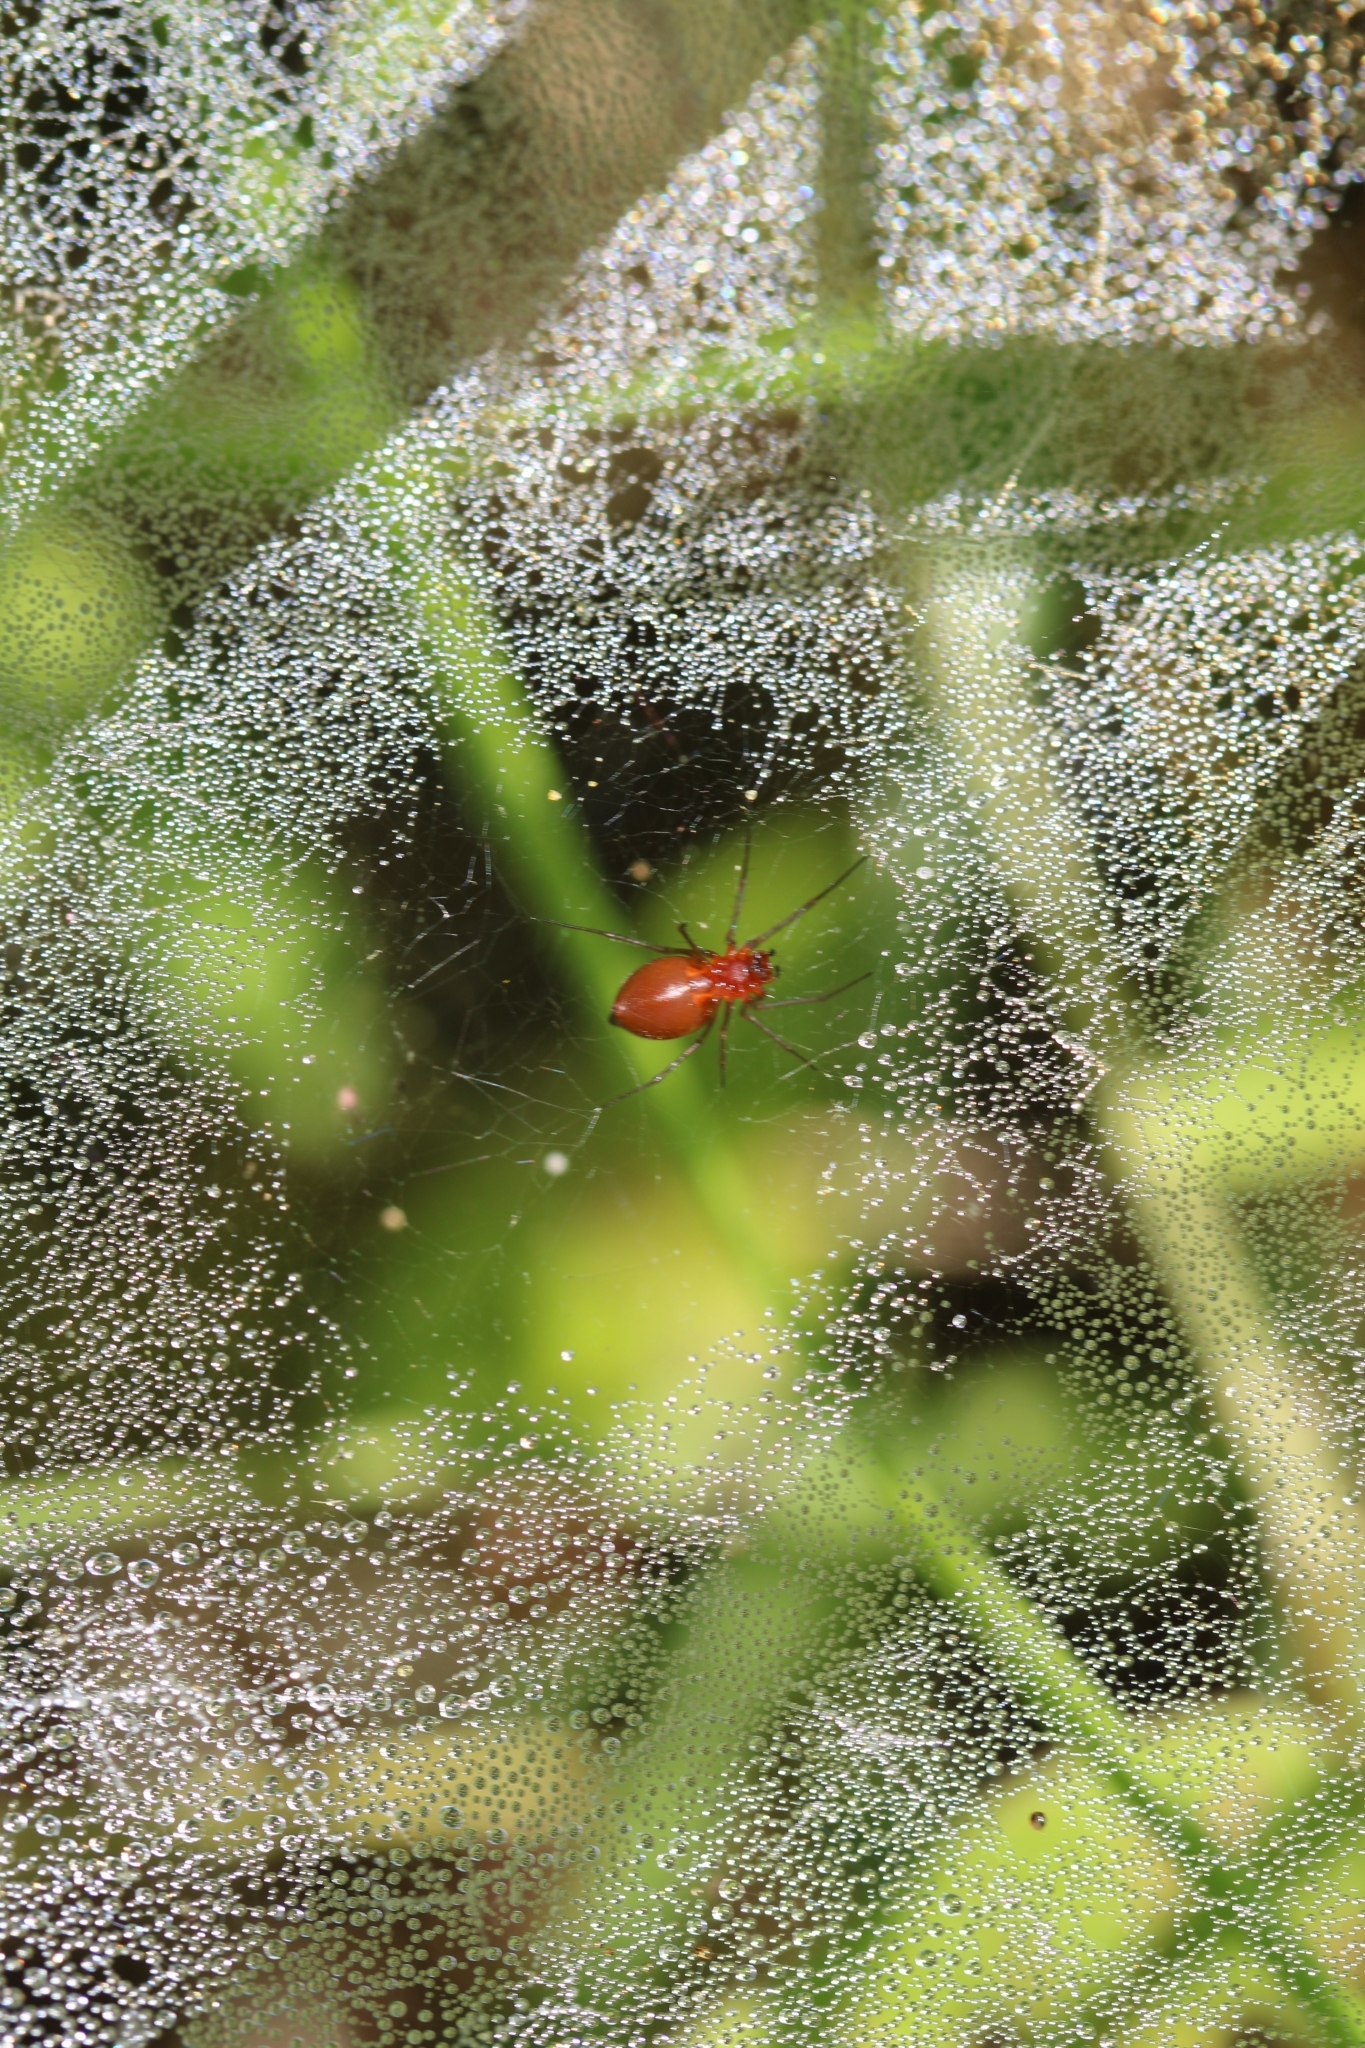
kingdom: Animalia
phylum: Arthropoda
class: Arachnida
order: Araneae
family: Linyphiidae
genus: Florinda
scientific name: Florinda coccinea
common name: Black-tailed red sheetweaver
